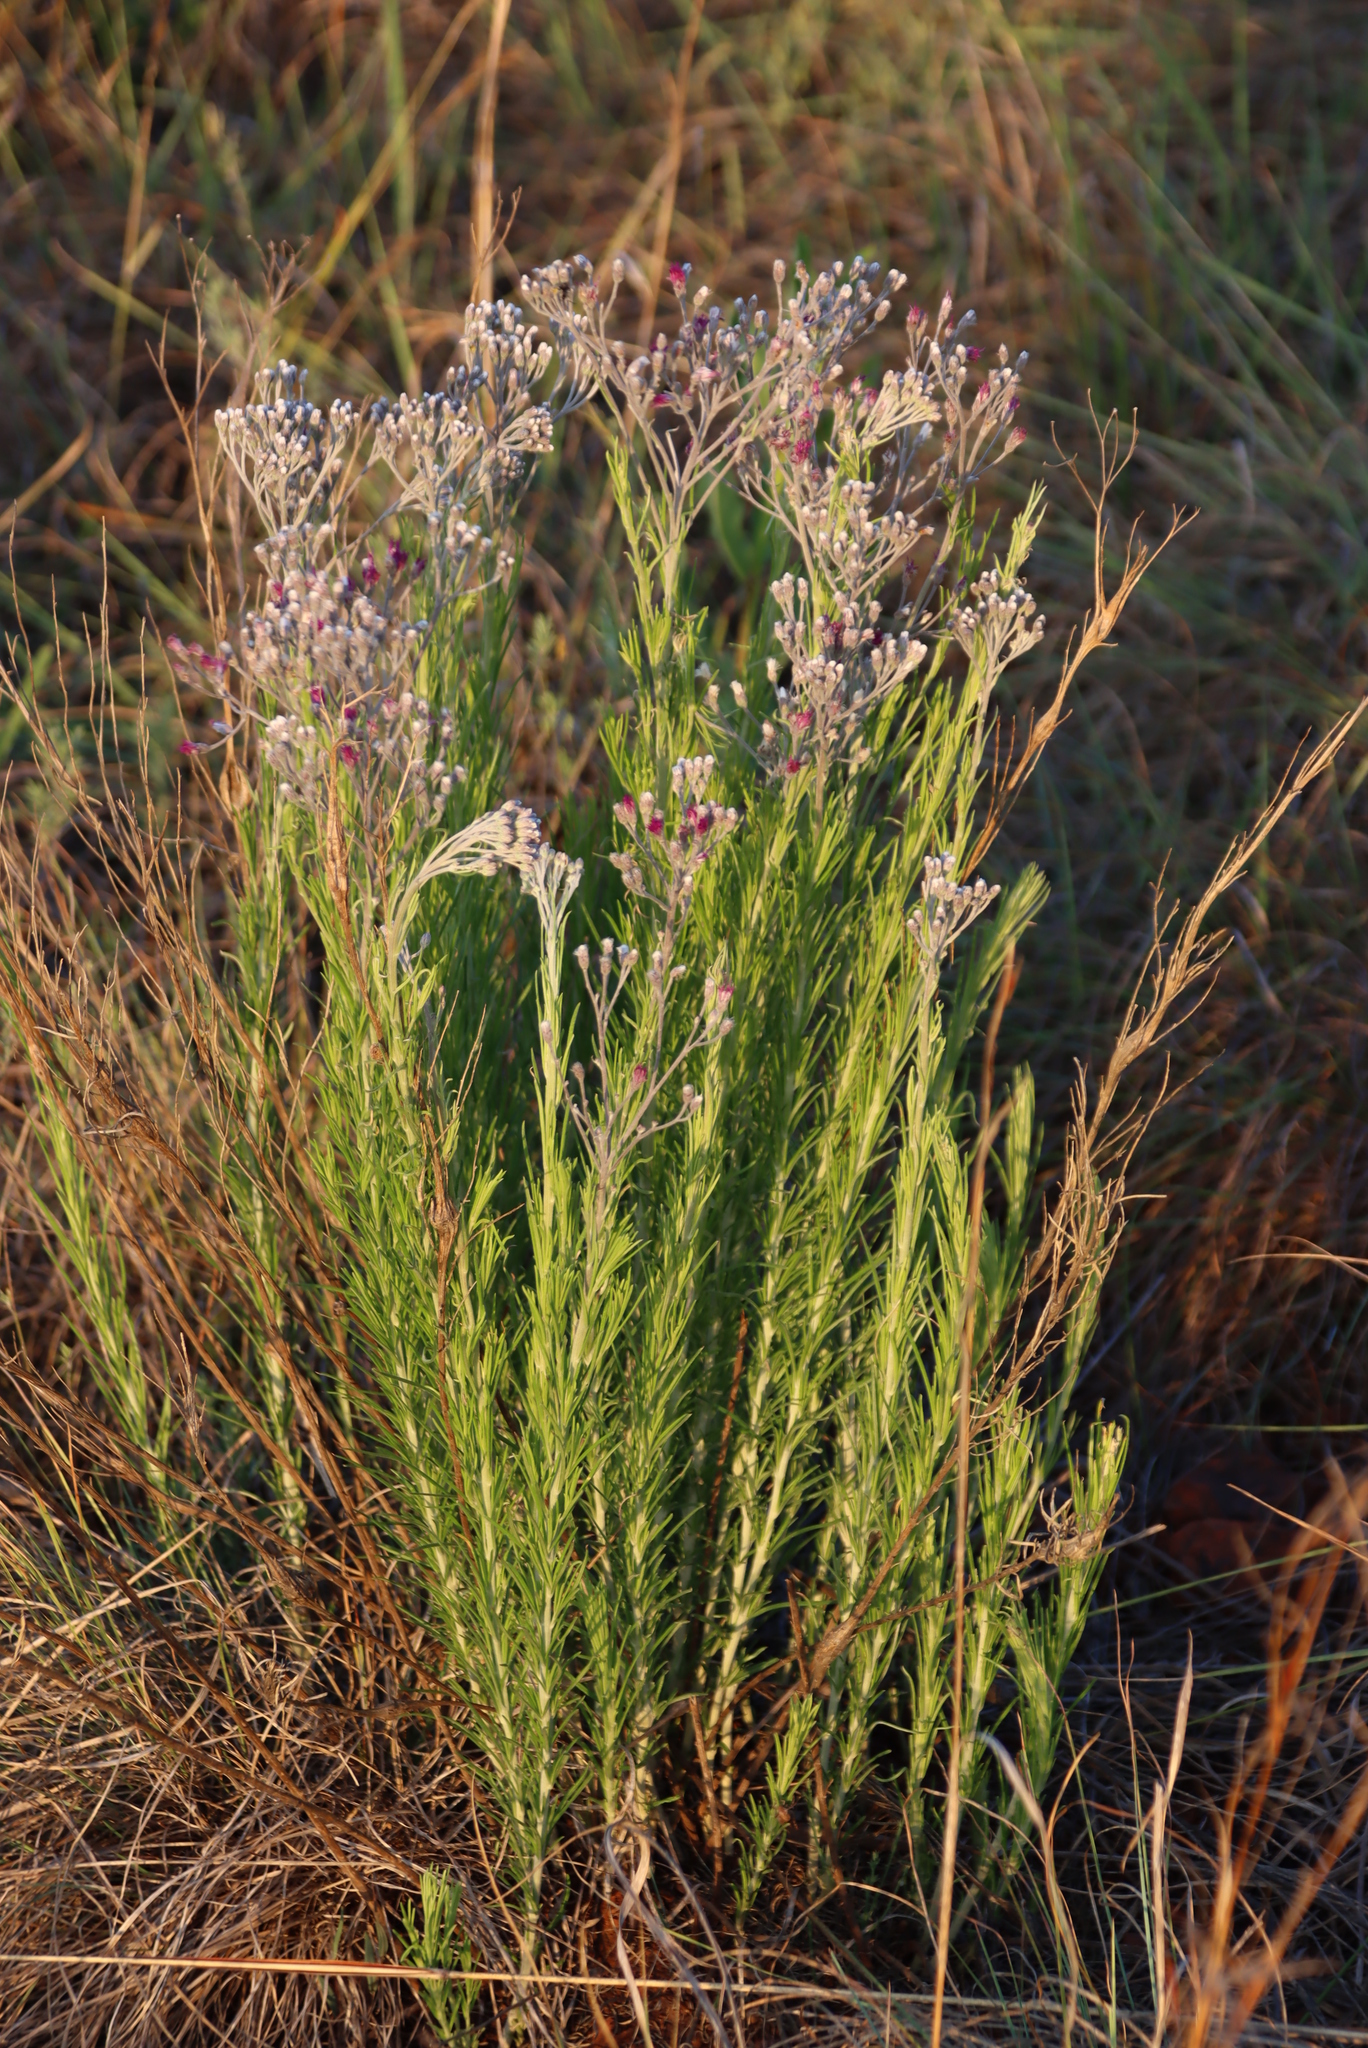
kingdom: Plantae
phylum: Tracheophyta
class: Magnoliopsida
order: Asterales
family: Asteraceae
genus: Hilliardiella
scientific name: Hilliardiella capensis
